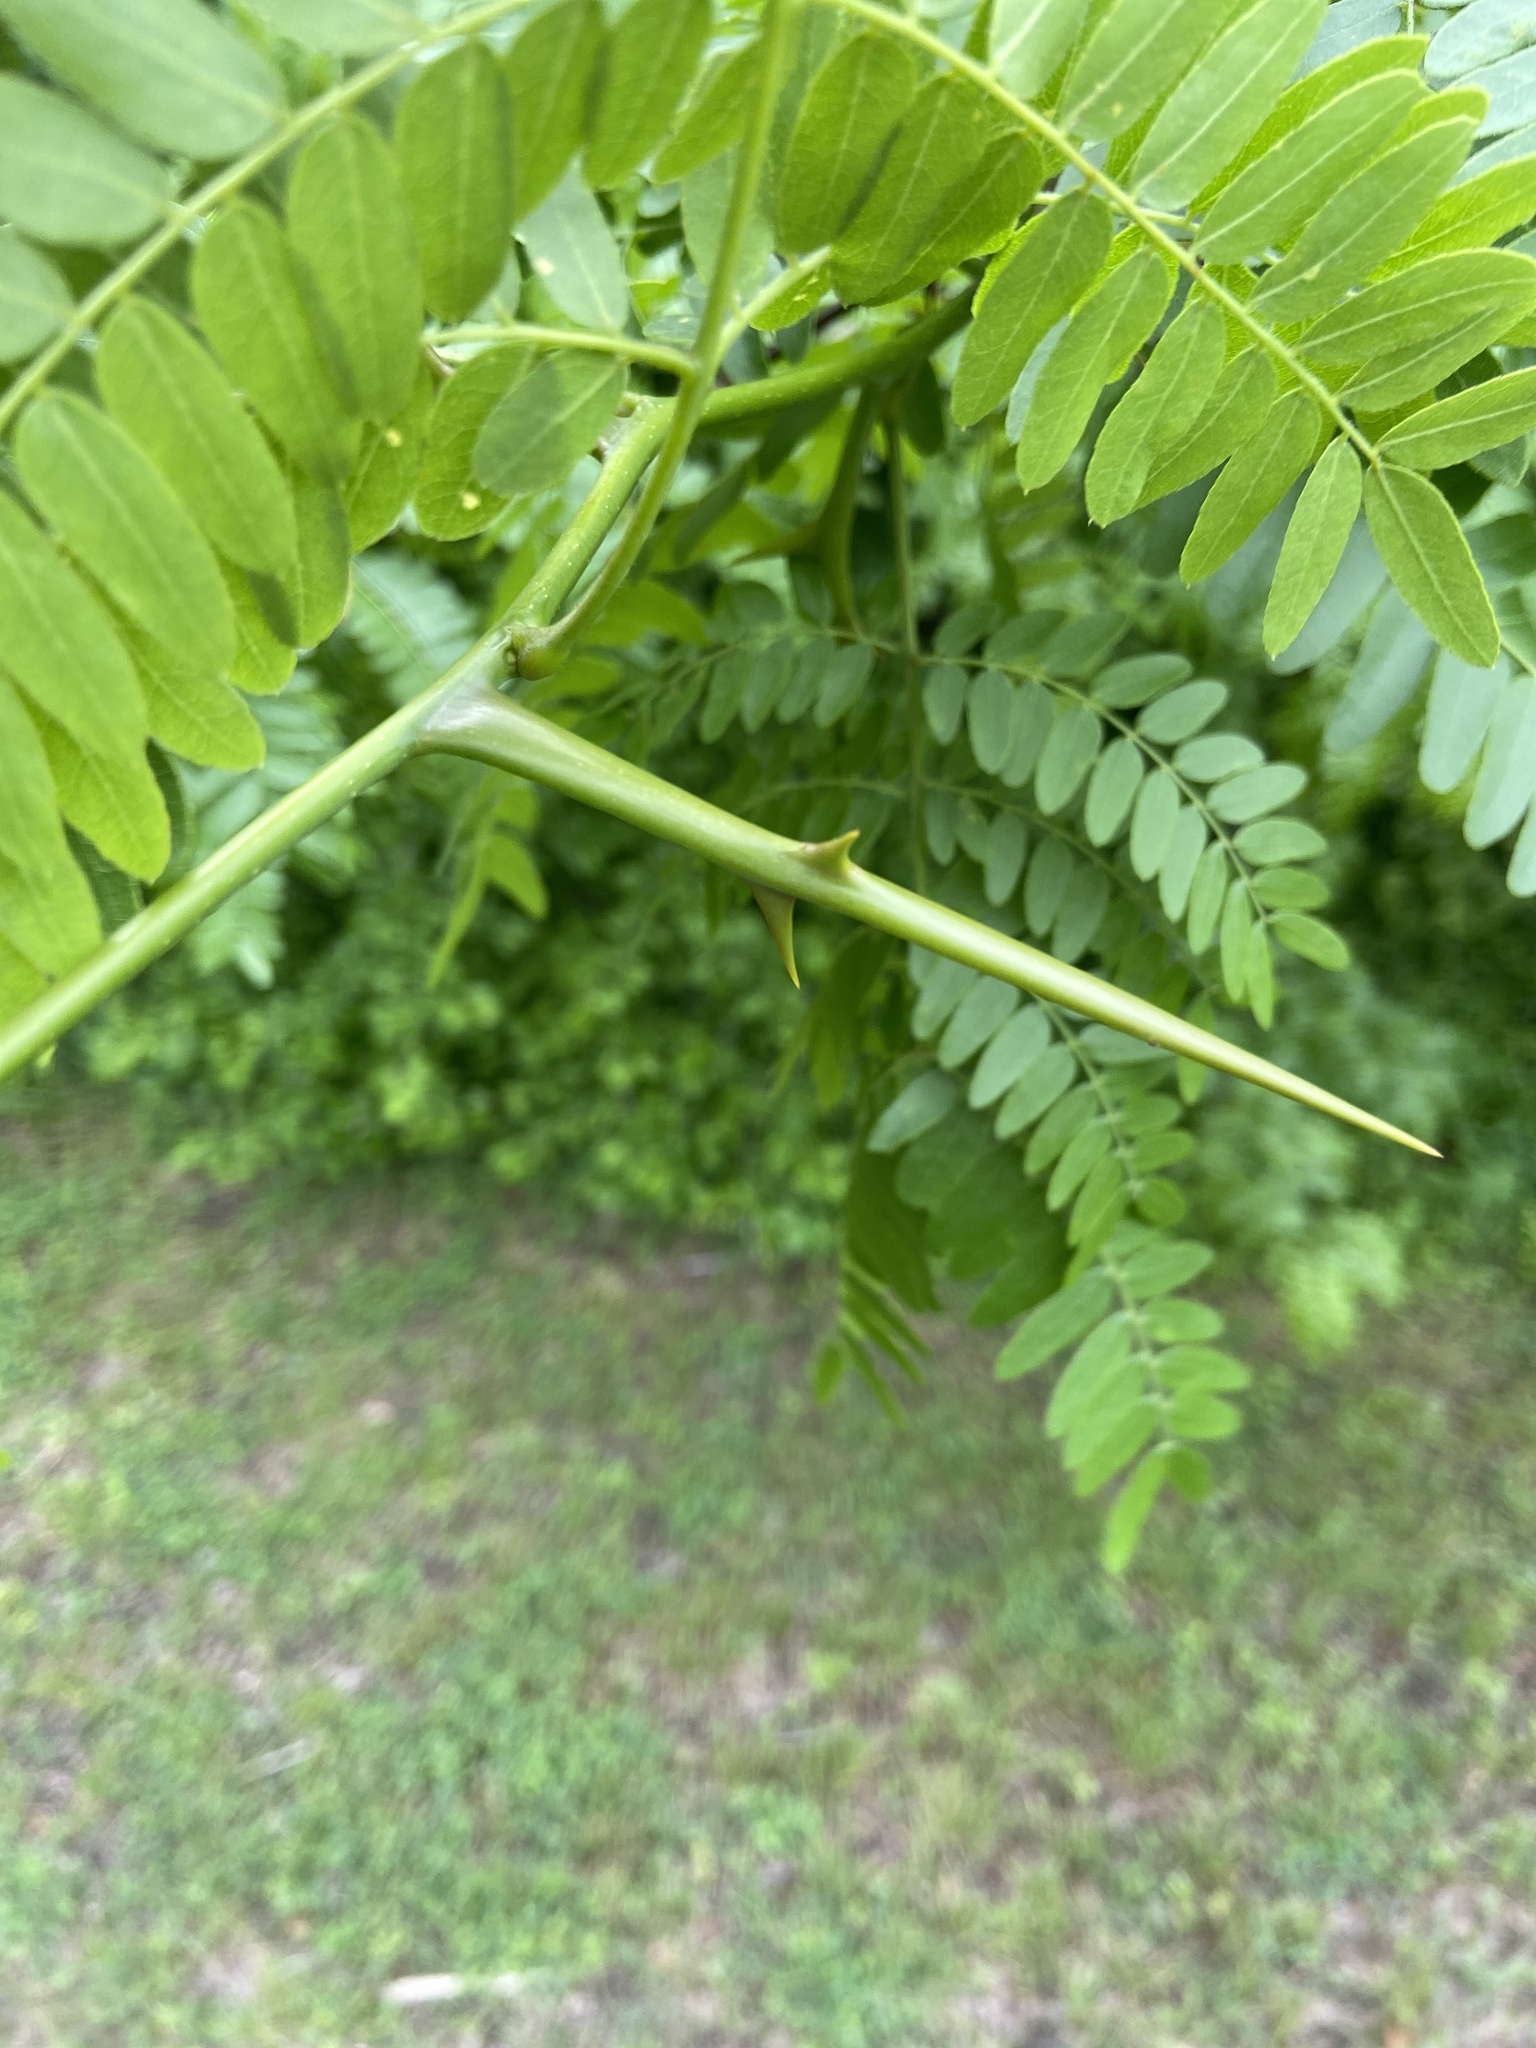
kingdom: Plantae
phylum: Tracheophyta
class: Magnoliopsida
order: Fabales
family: Fabaceae
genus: Gleditsia
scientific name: Gleditsia triacanthos
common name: Common honeylocust
